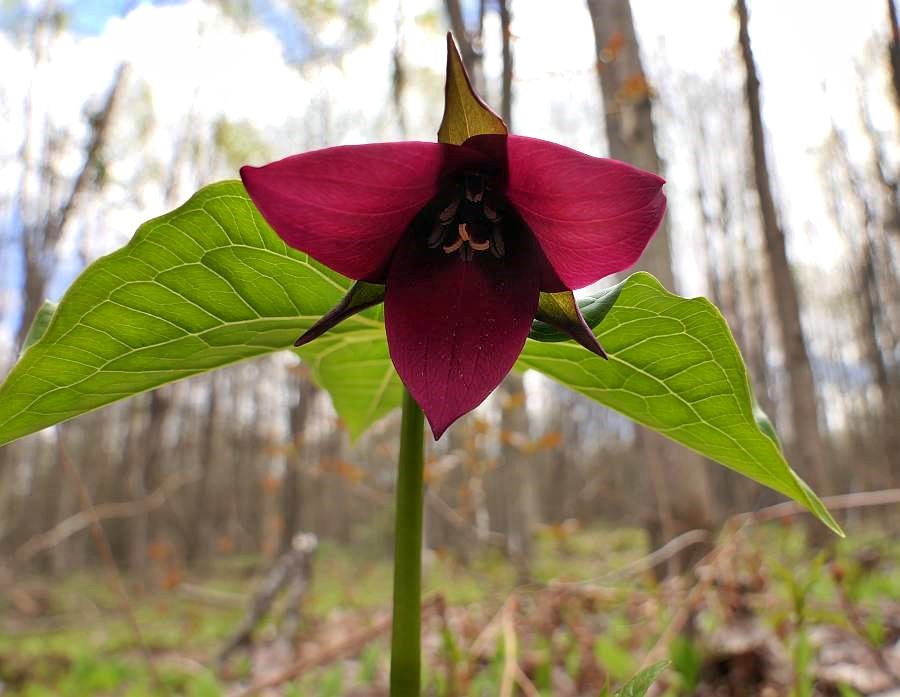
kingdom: Plantae
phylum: Tracheophyta
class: Liliopsida
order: Liliales
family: Melanthiaceae
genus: Trillium
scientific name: Trillium erectum
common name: Purple trillium
